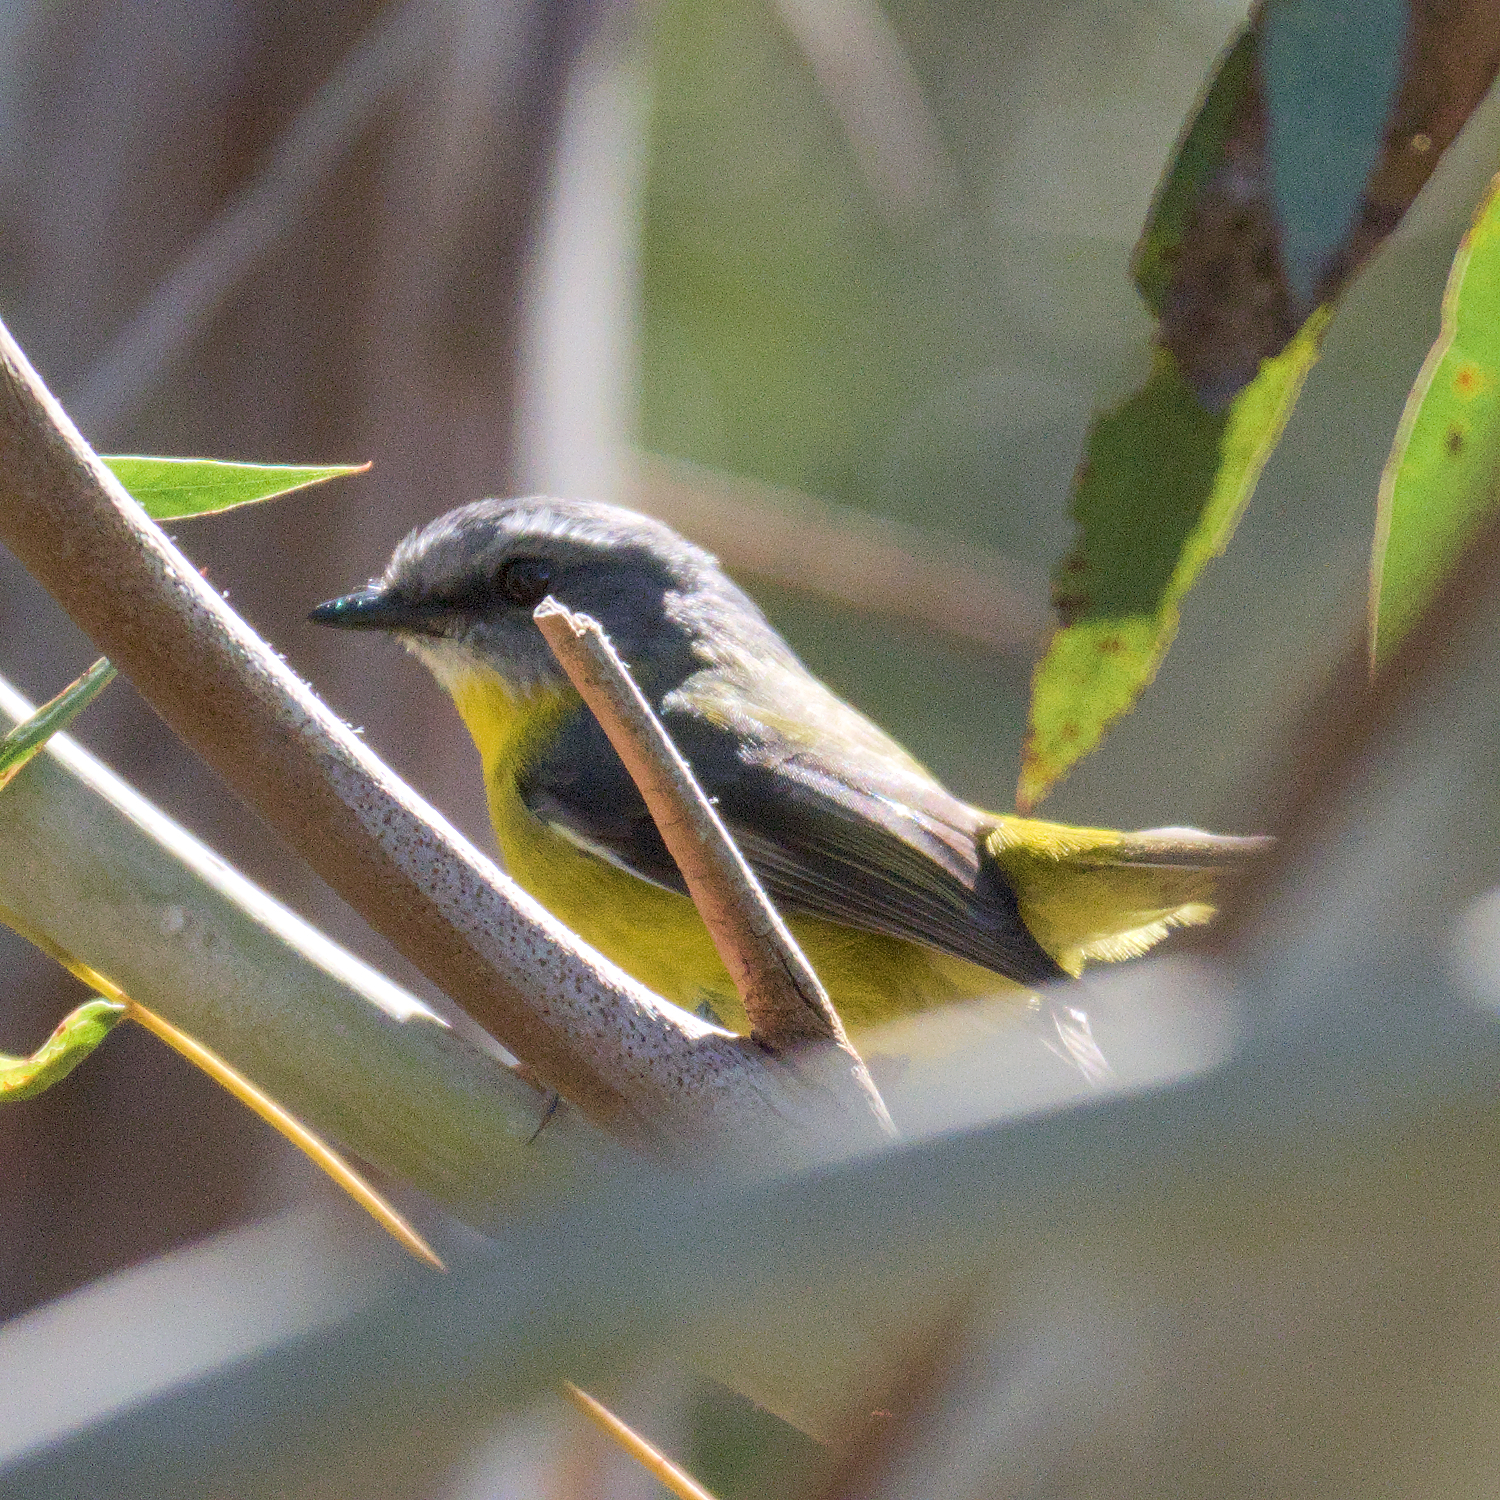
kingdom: Animalia
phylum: Chordata
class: Aves
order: Passeriformes
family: Petroicidae
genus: Eopsaltria
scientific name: Eopsaltria australis
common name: Eastern yellow robin
